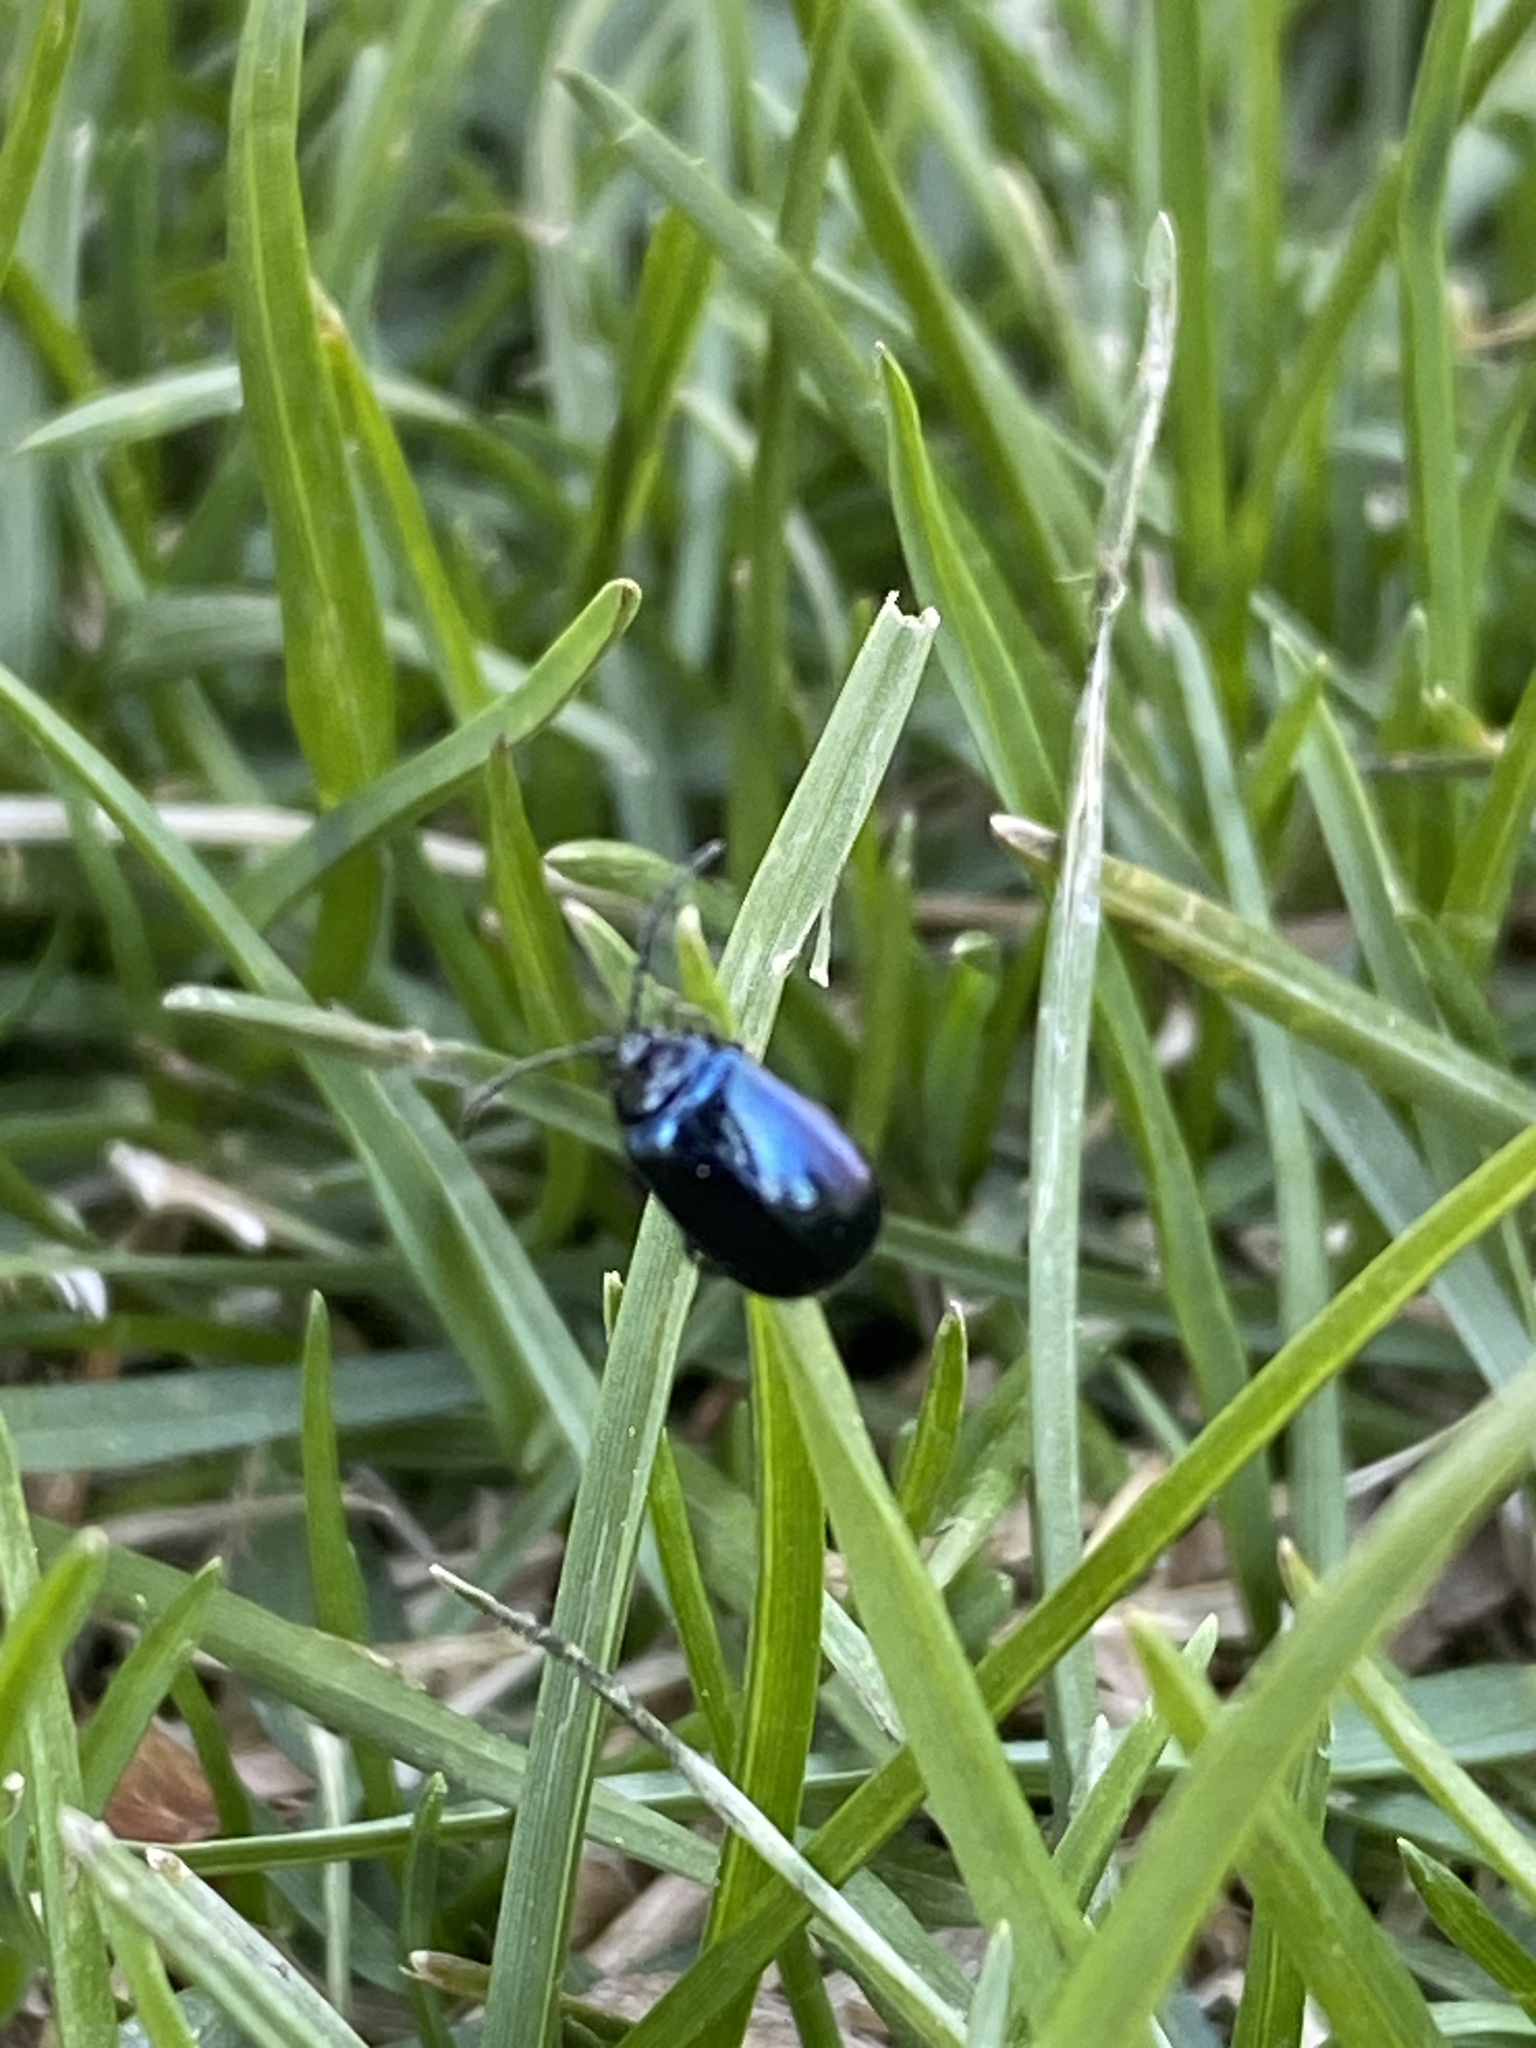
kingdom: Animalia
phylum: Arthropoda
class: Insecta
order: Coleoptera
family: Chrysomelidae
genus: Agelastica
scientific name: Agelastica alni
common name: Alder leaf beetle
